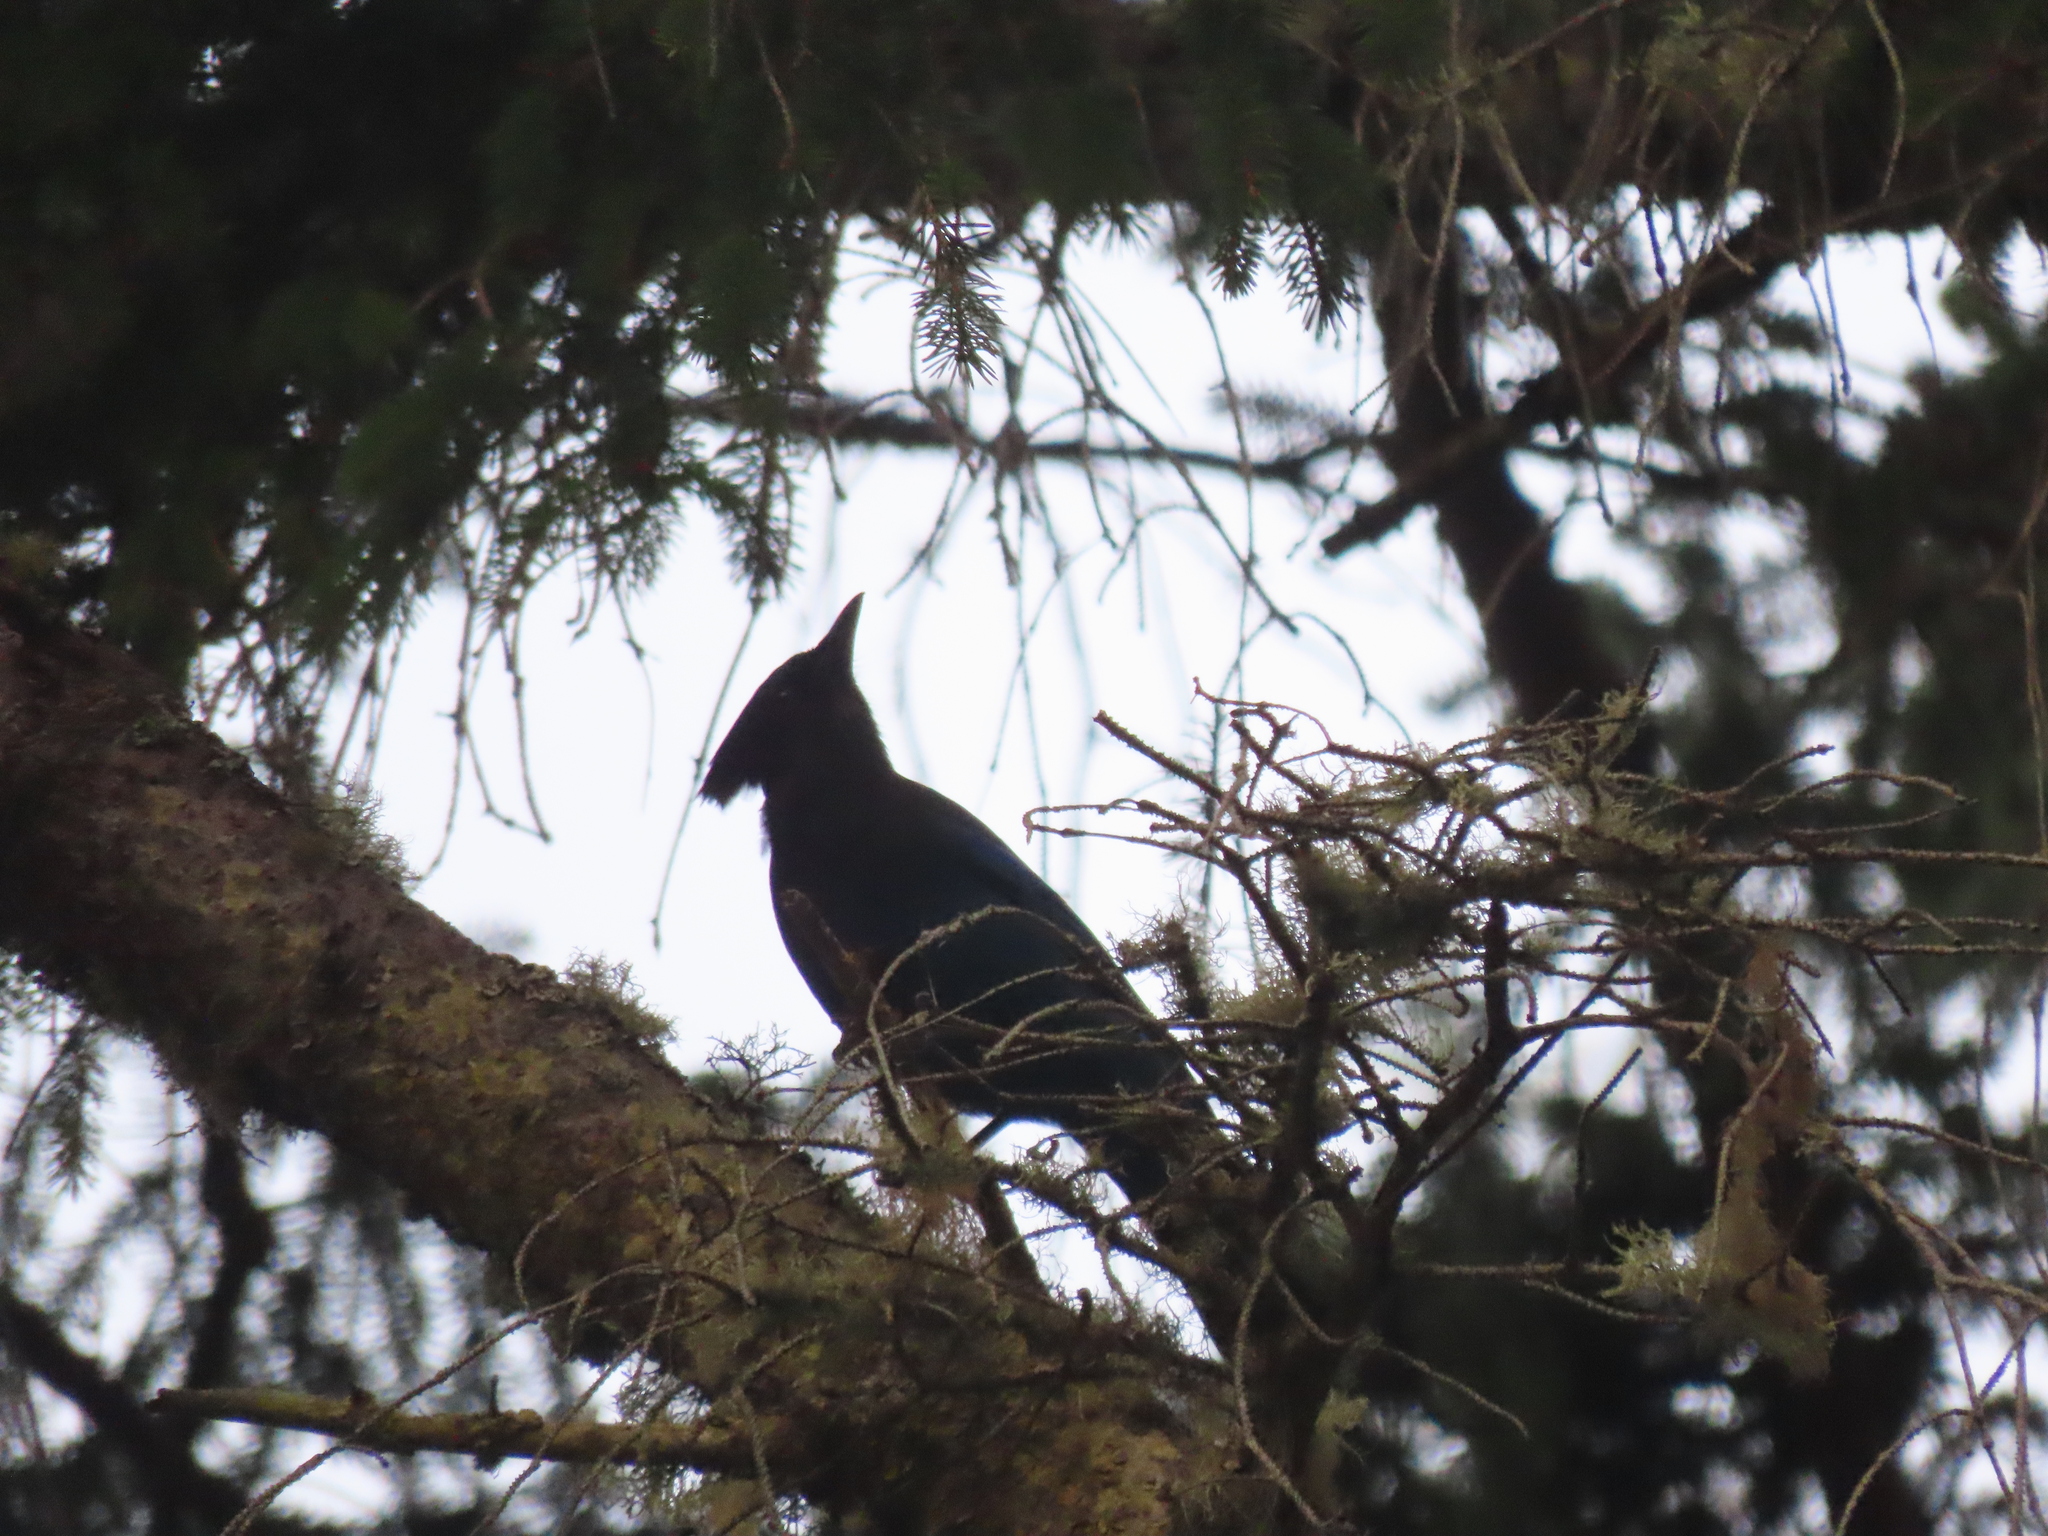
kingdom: Animalia
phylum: Chordata
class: Aves
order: Passeriformes
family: Corvidae
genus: Cyanocitta
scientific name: Cyanocitta stelleri
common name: Steller's jay
